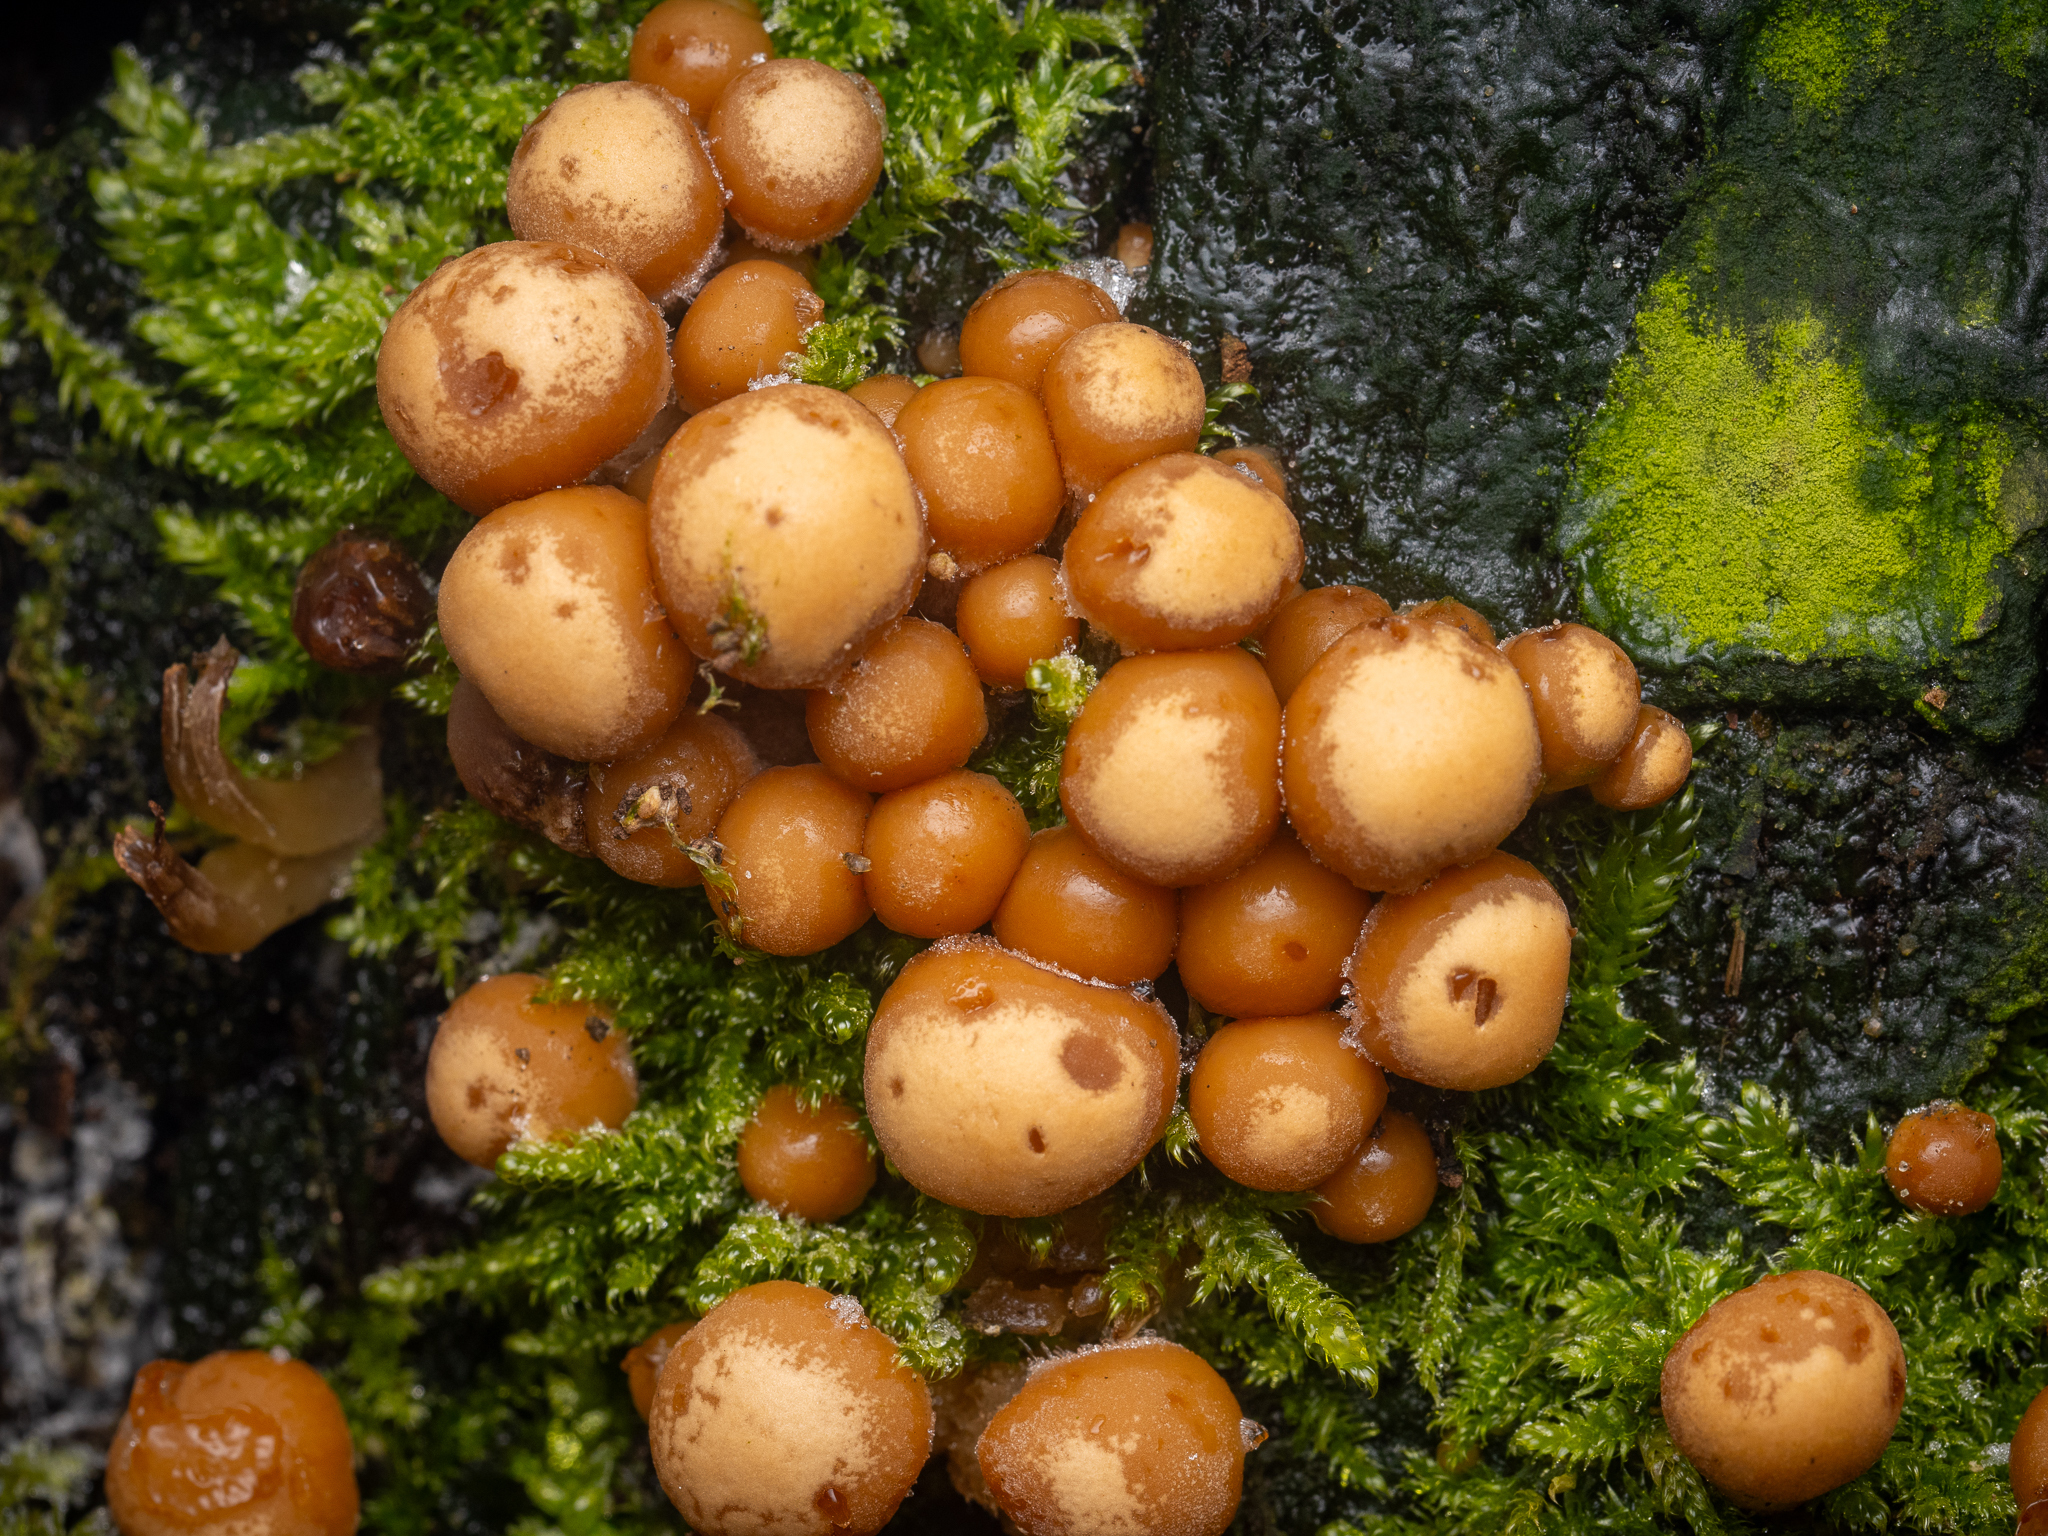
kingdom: Fungi
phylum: Basidiomycota
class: Agaricomycetes
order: Agaricales
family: Strophariaceae
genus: Kuehneromyces
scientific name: Kuehneromyces mutabilis
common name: Sheathed woodtuft
